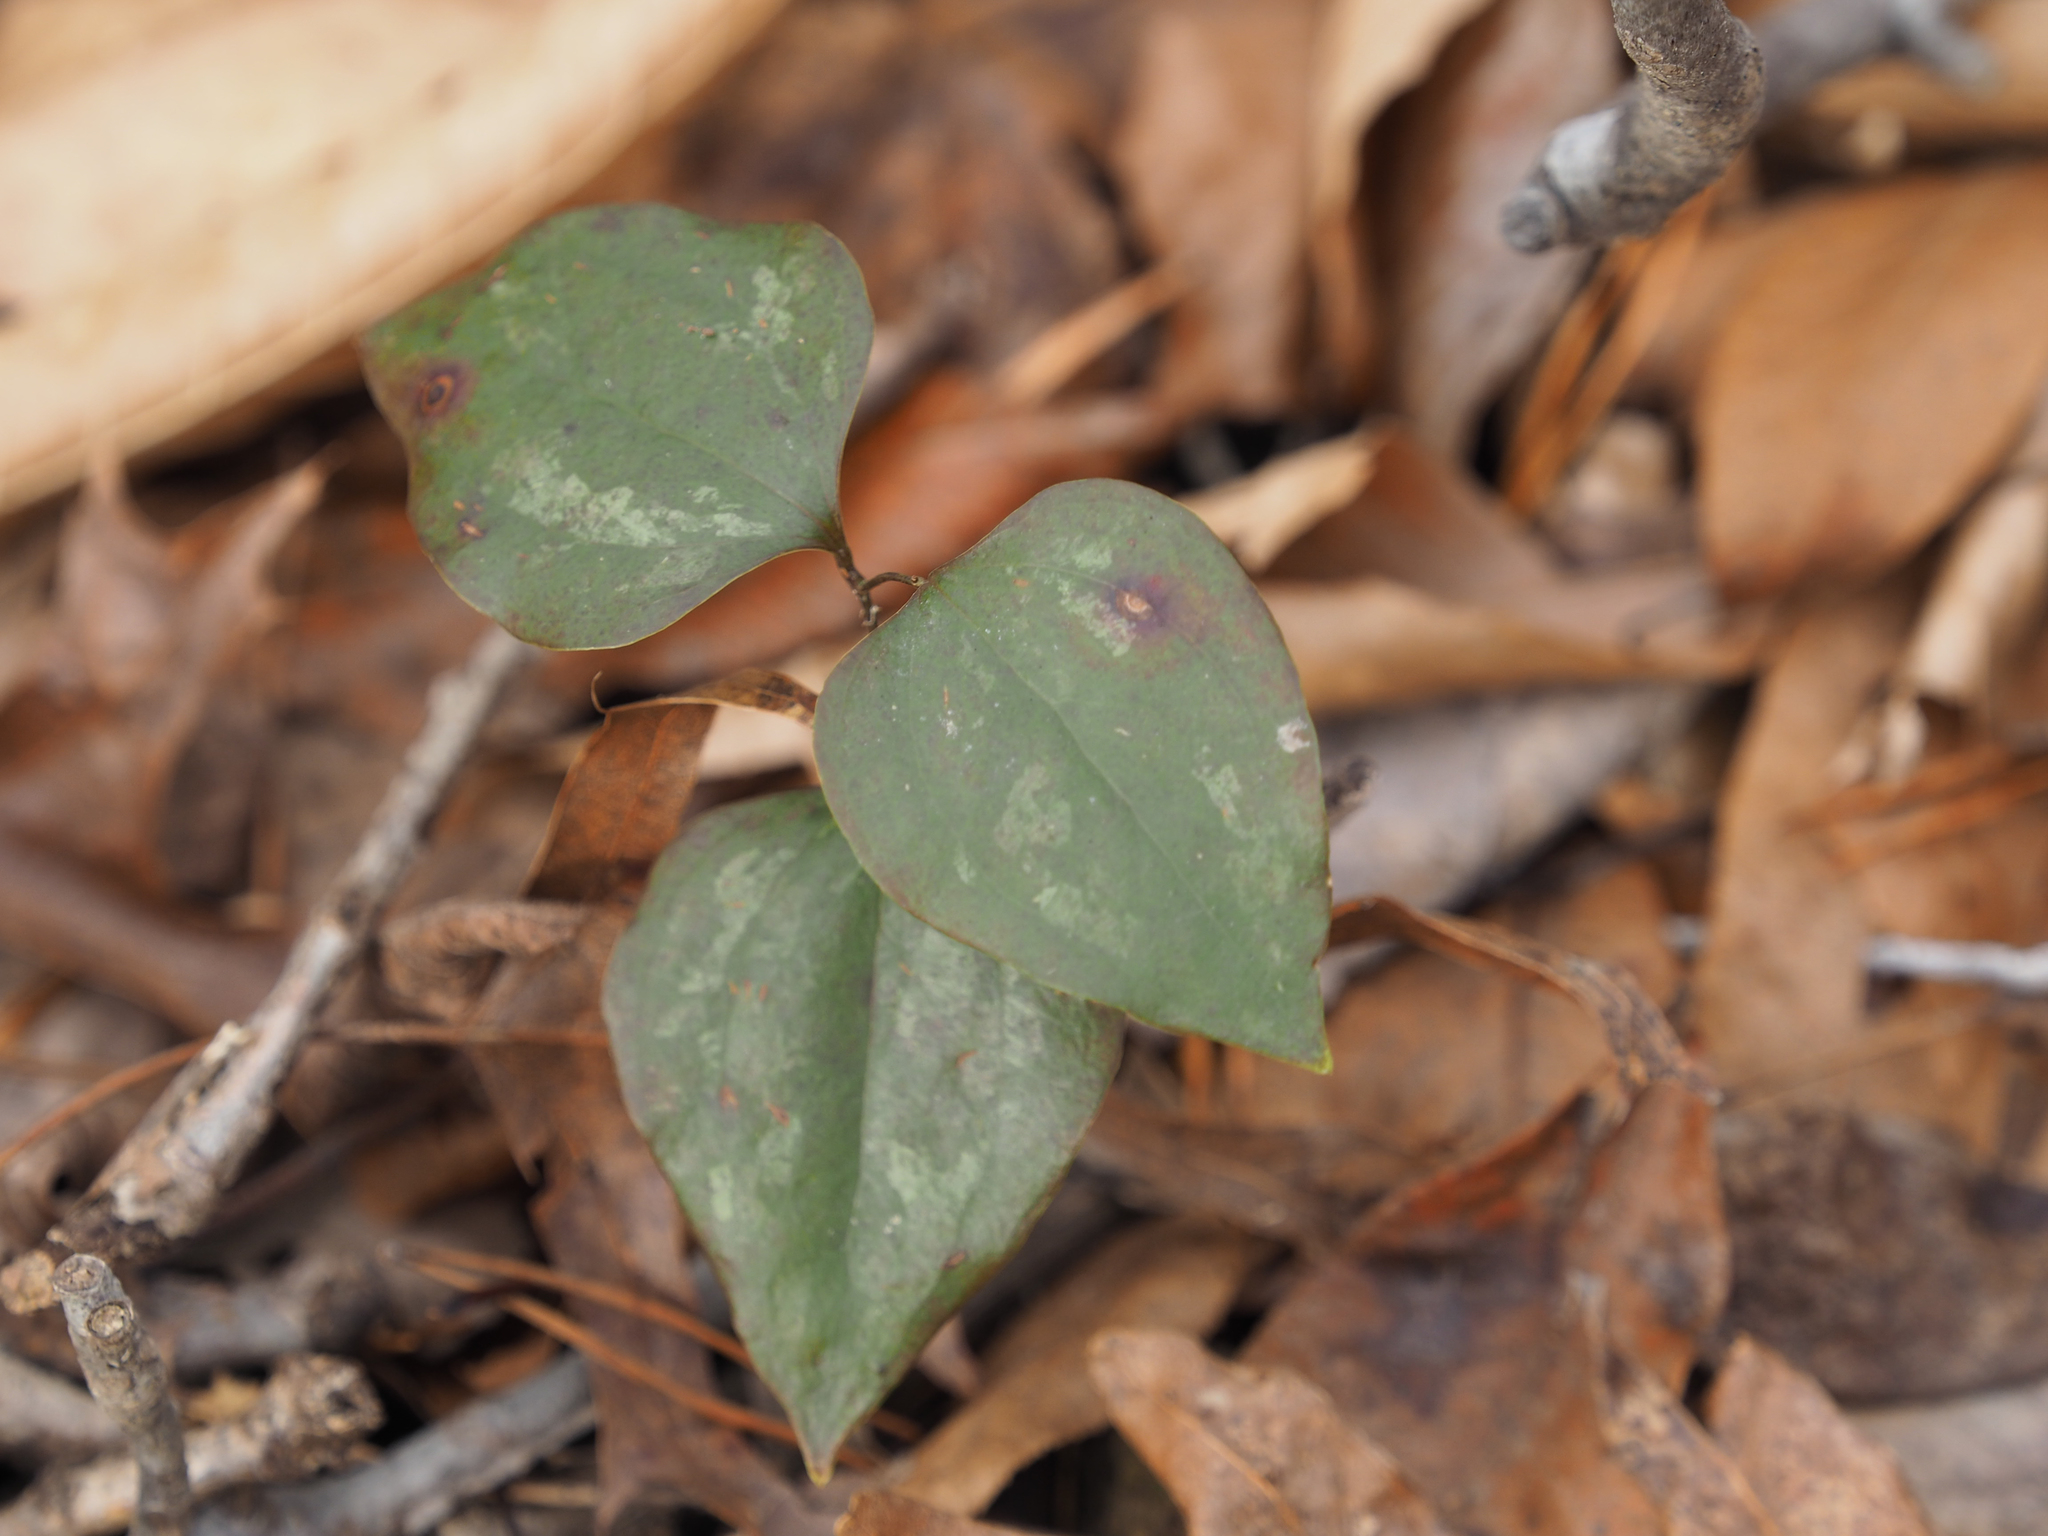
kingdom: Plantae
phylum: Tracheophyta
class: Liliopsida
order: Liliales
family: Smilacaceae
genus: Smilax
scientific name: Smilax glauca
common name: Cat greenbrier
